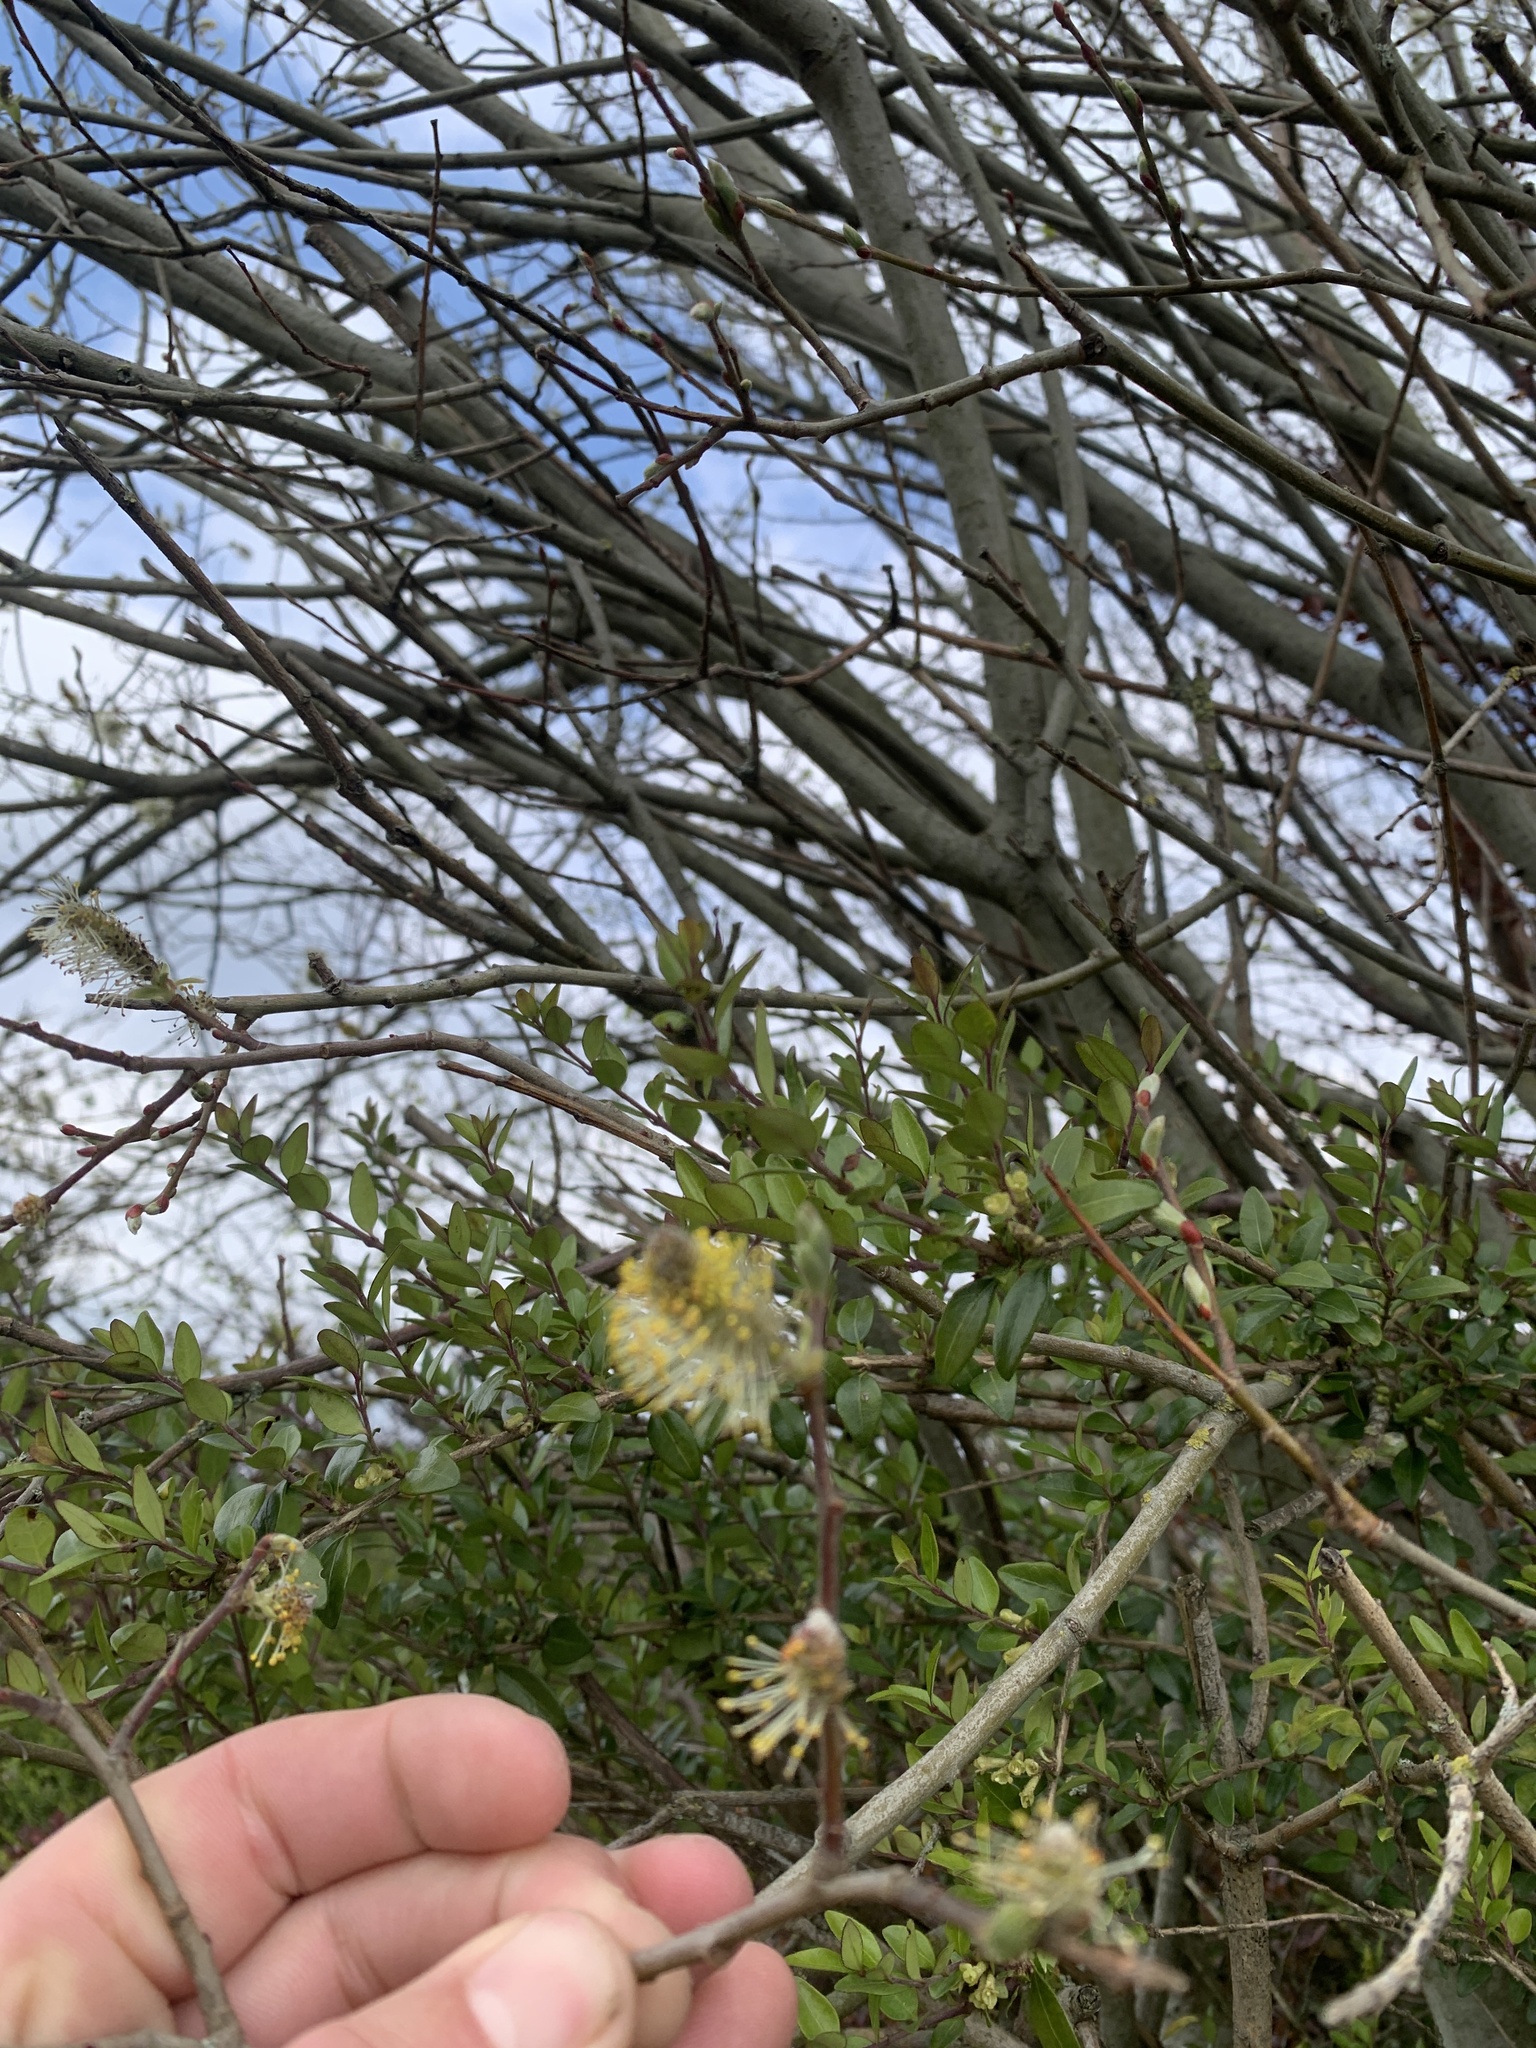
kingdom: Plantae
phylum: Tracheophyta
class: Magnoliopsida
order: Malpighiales
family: Salicaceae
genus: Salix
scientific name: Salix caprea
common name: Goat willow
